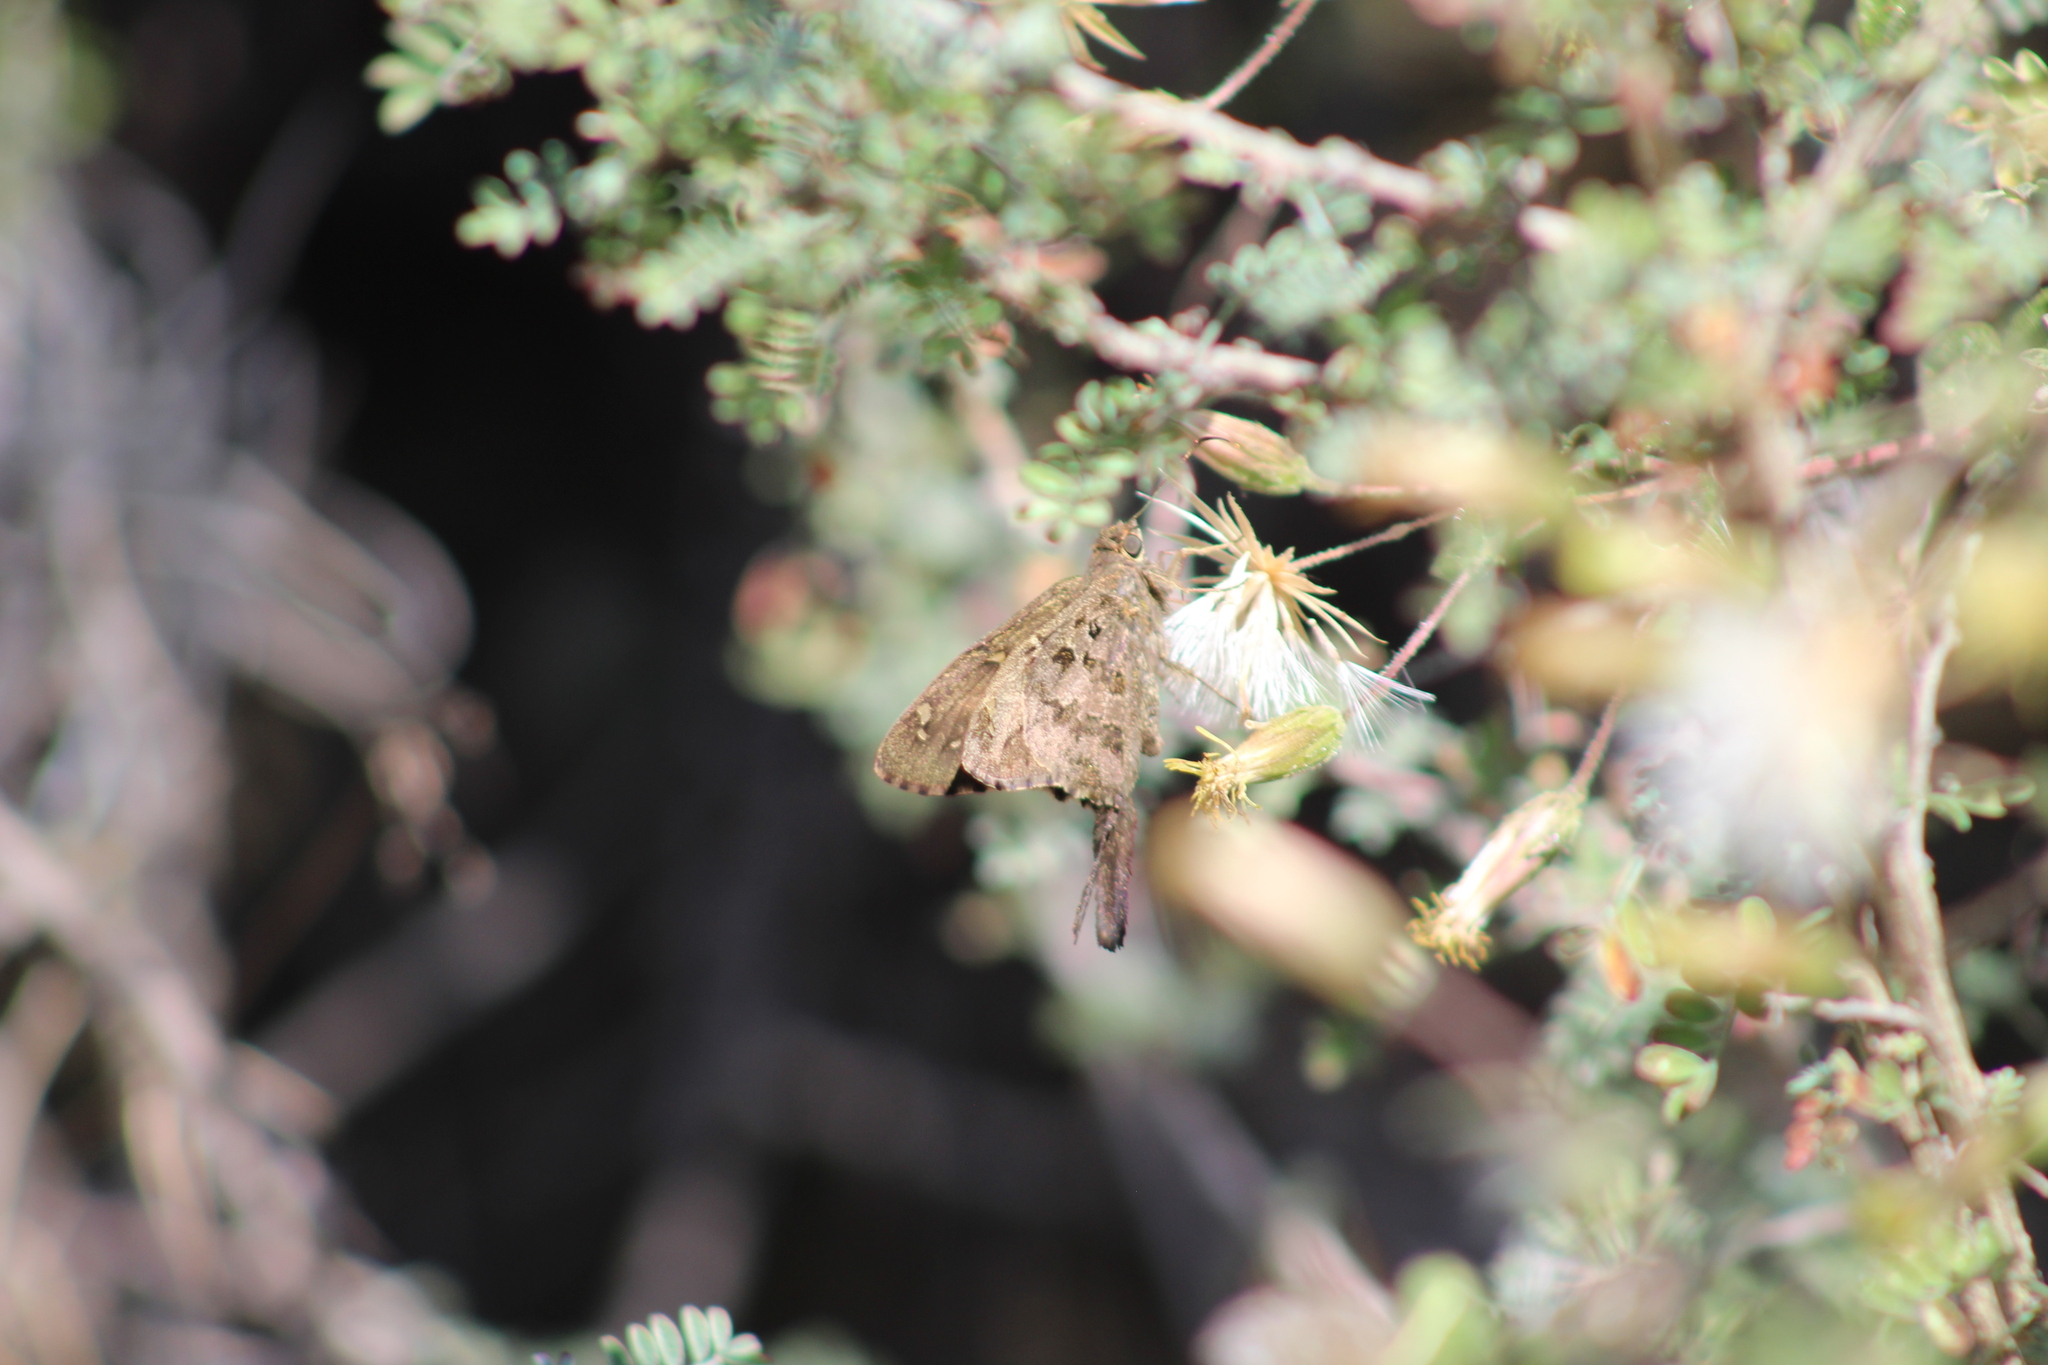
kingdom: Animalia
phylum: Arthropoda
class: Insecta
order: Lepidoptera
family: Hesperiidae
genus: Thorybes
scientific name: Thorybes
